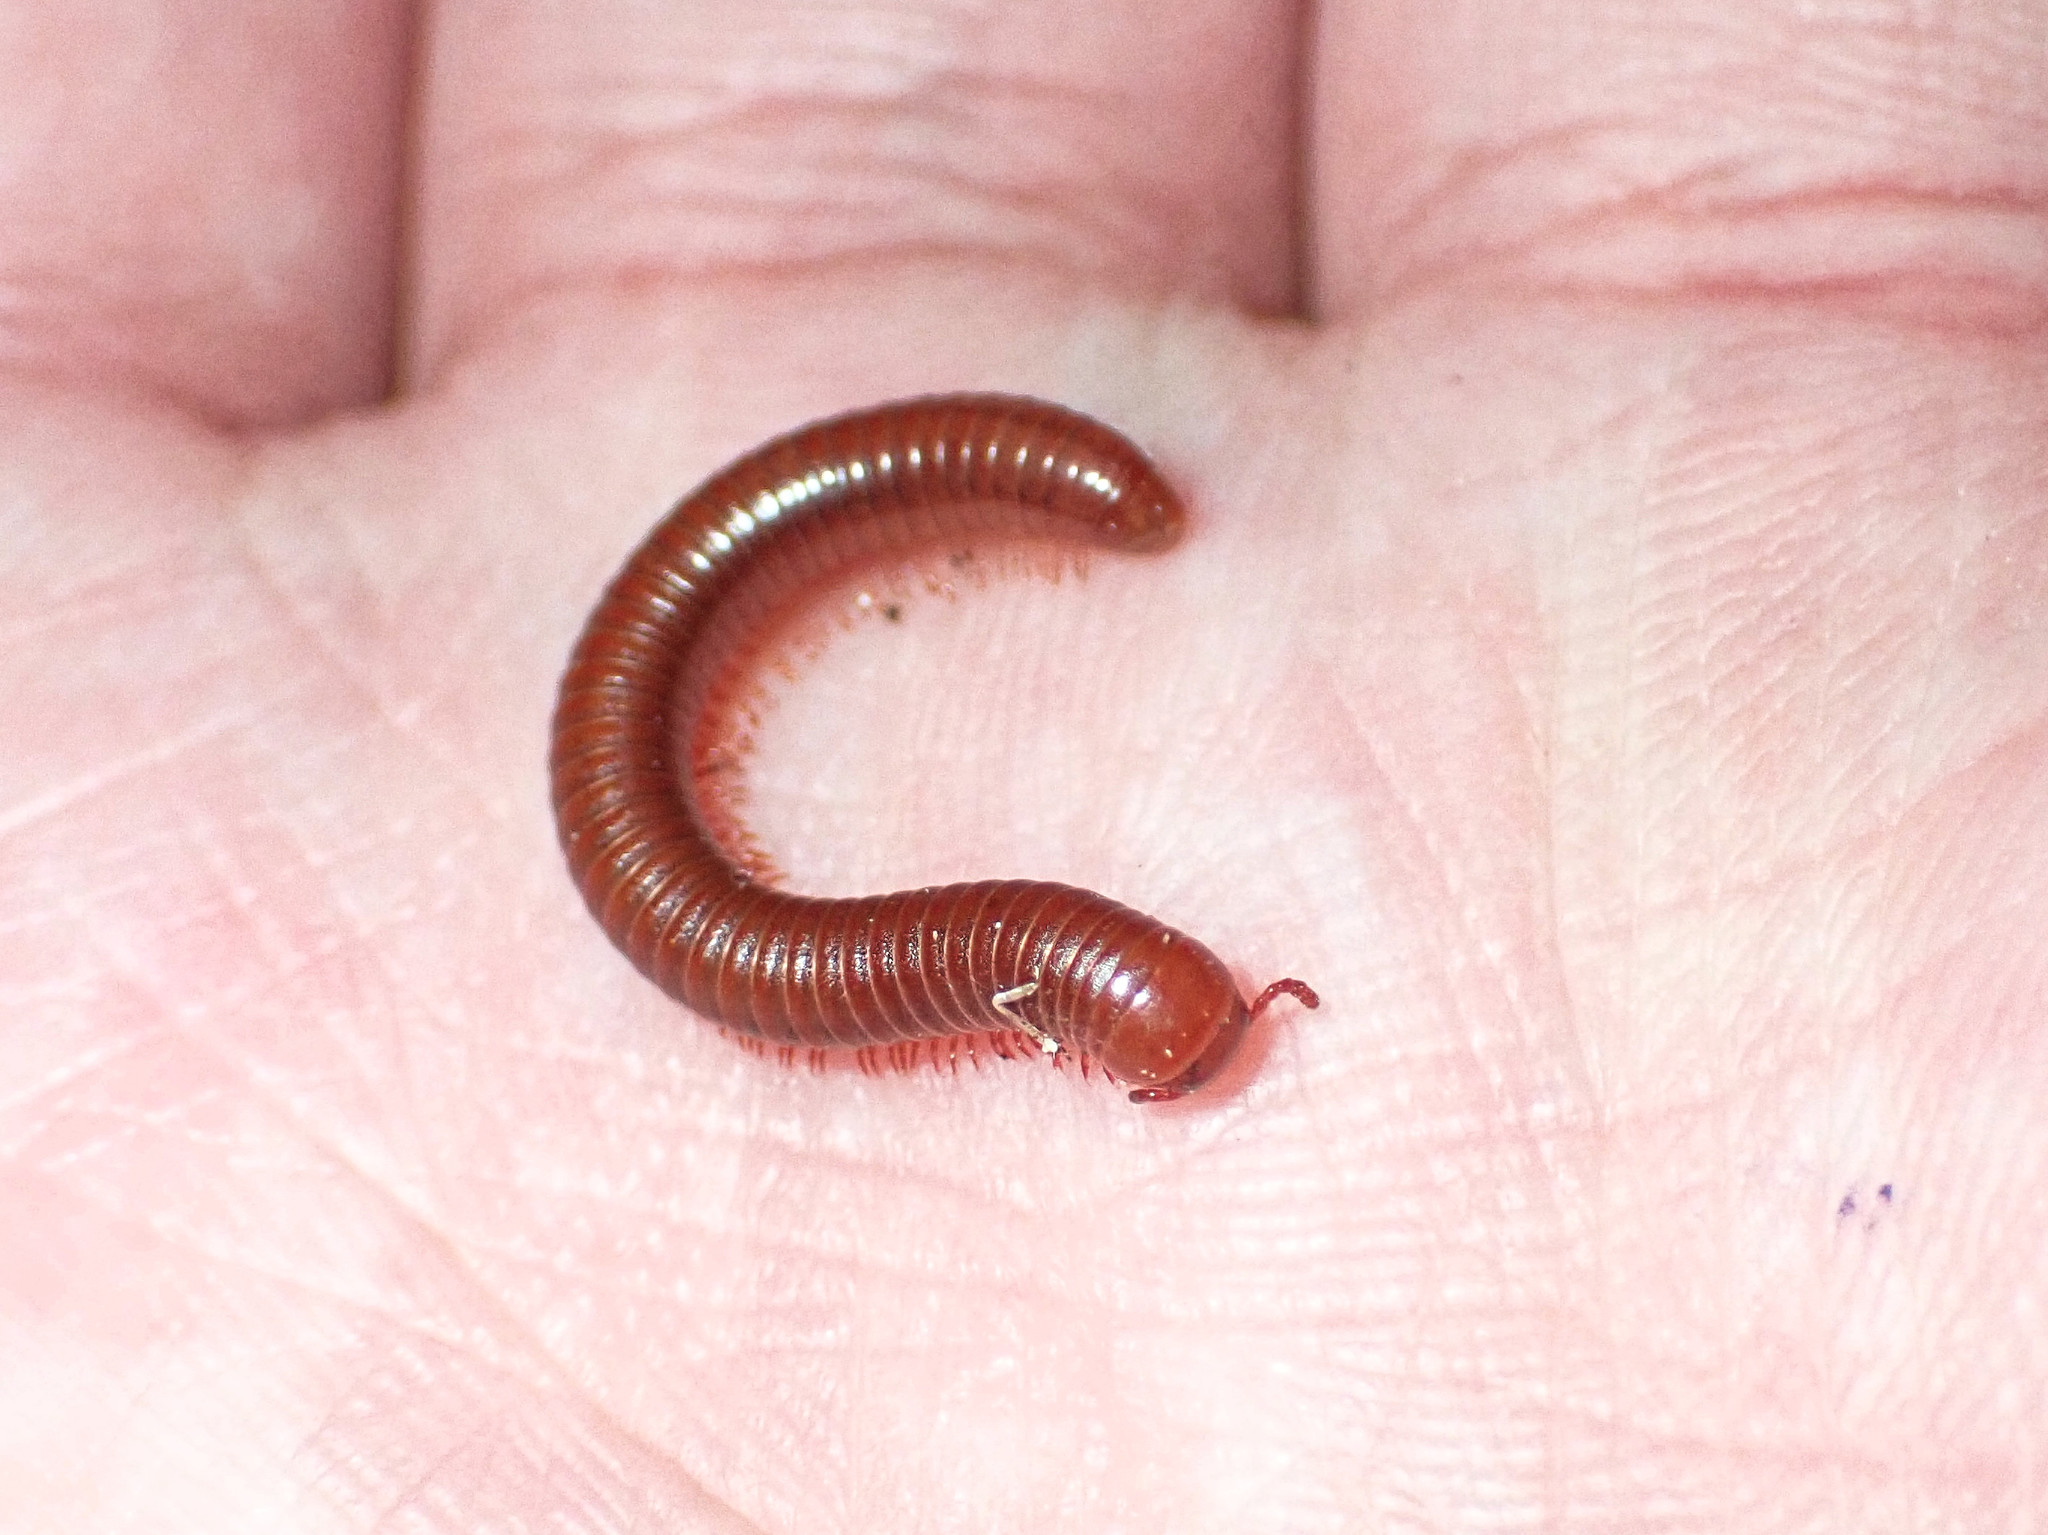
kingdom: Animalia
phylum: Arthropoda
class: Diplopoda
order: Spirobolida
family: Pachybolidae
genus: Trigoniulus
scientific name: Trigoniulus corallinus
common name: Millipede
